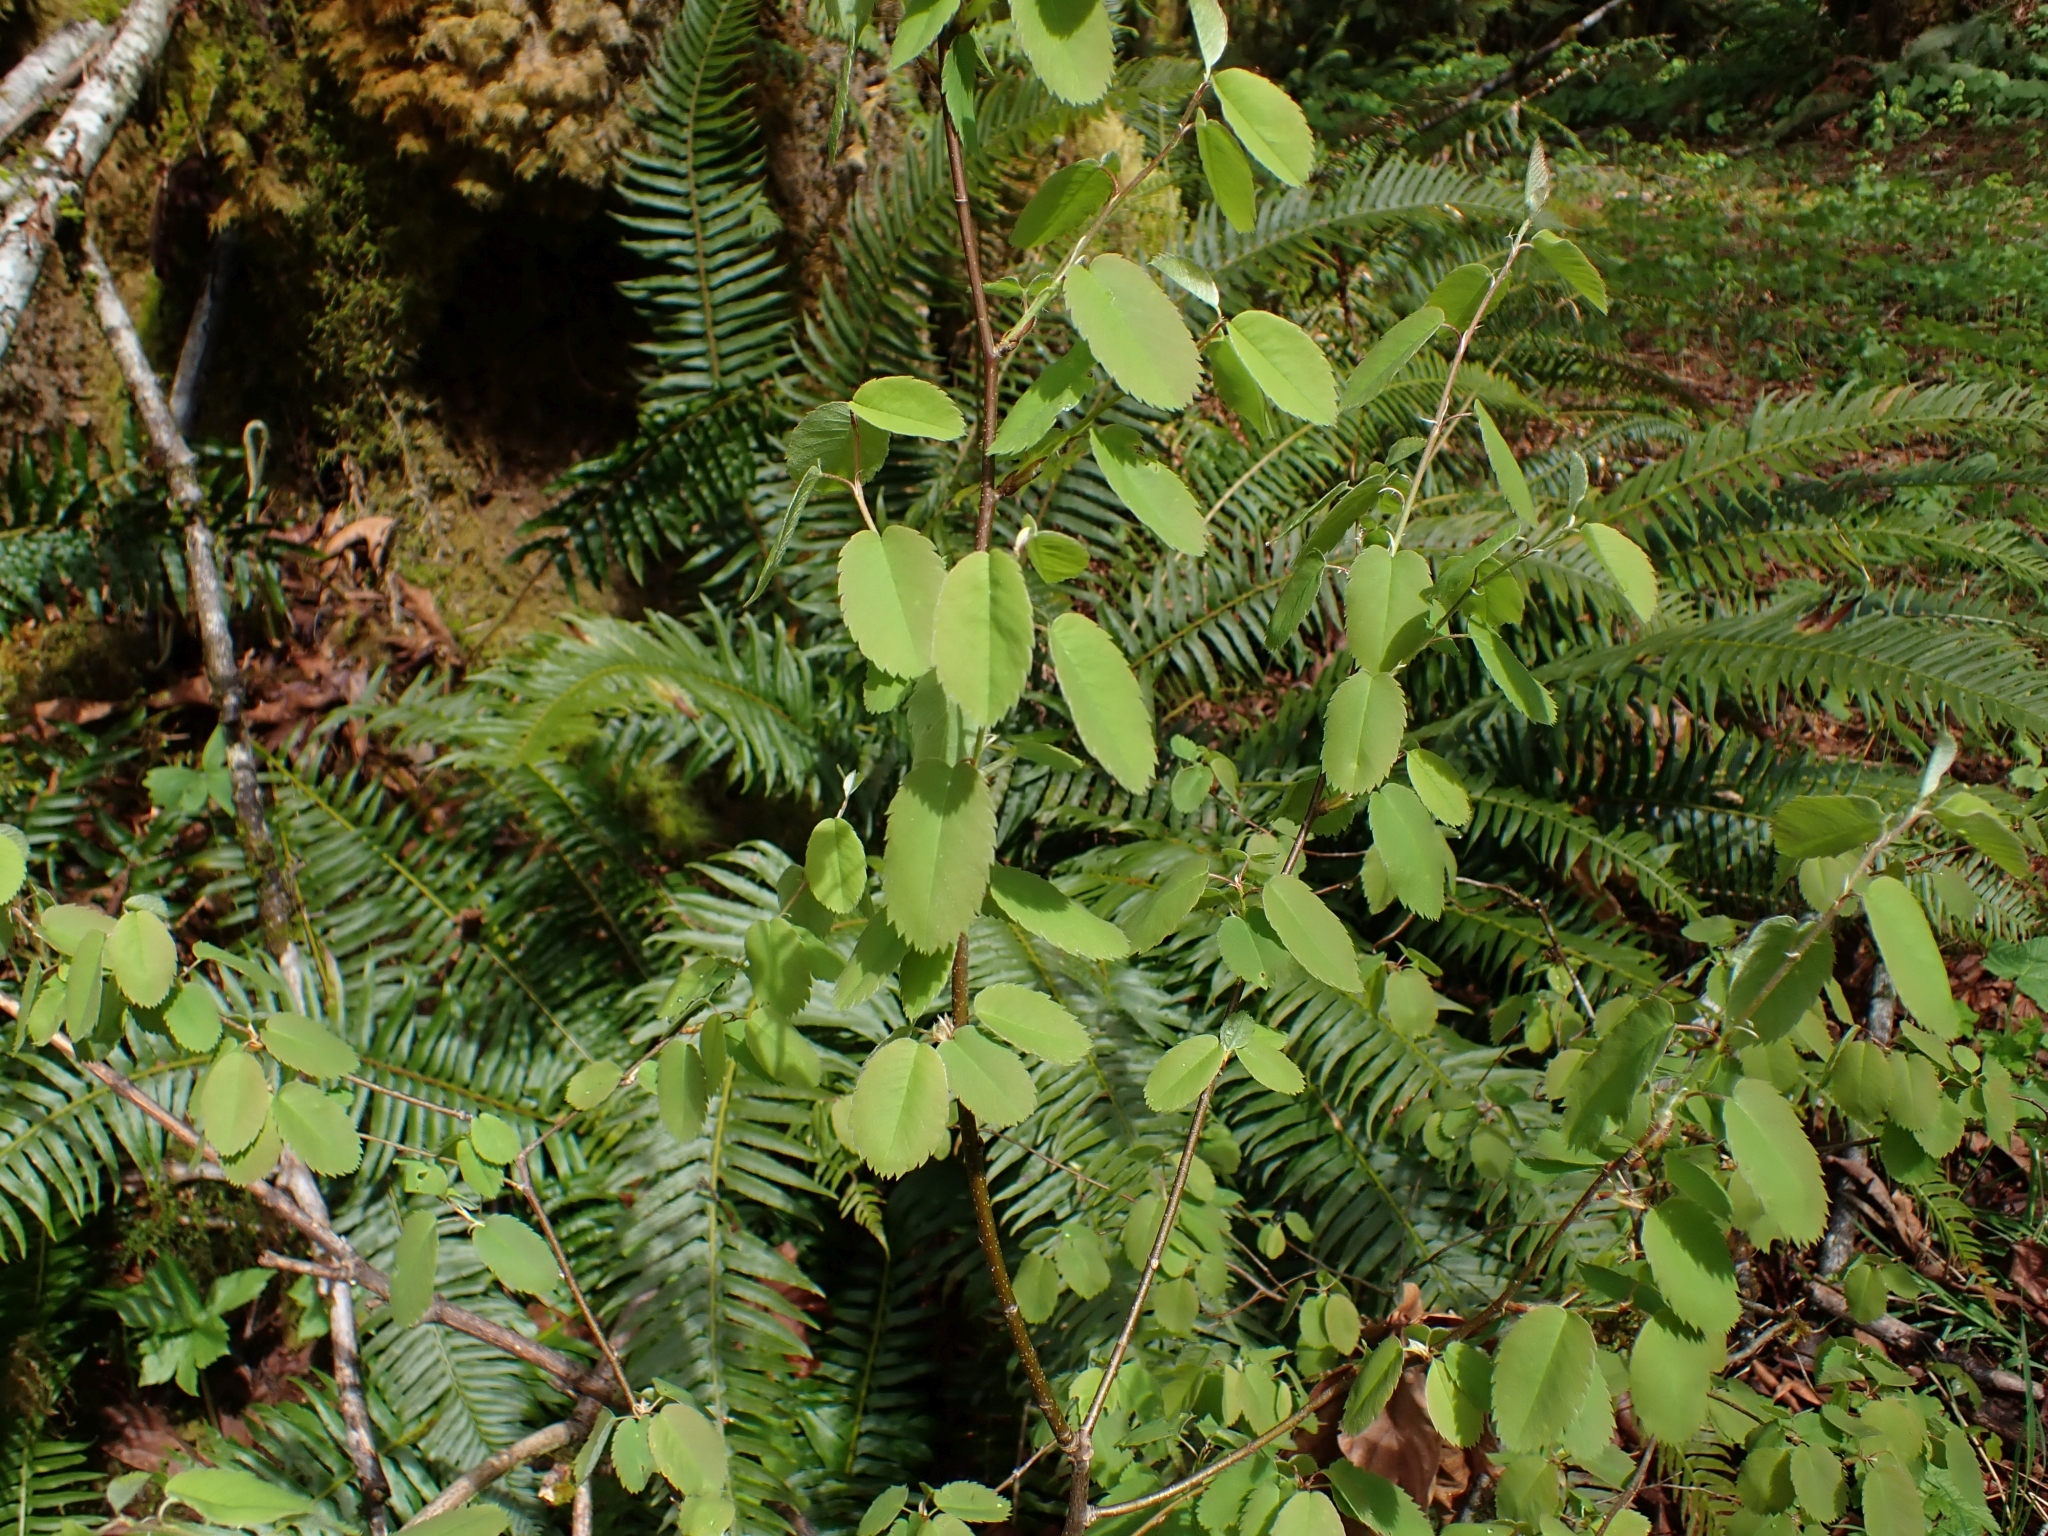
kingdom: Plantae
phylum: Tracheophyta
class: Magnoliopsida
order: Rosales
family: Rosaceae
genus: Amelanchier
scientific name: Amelanchier alnifolia
